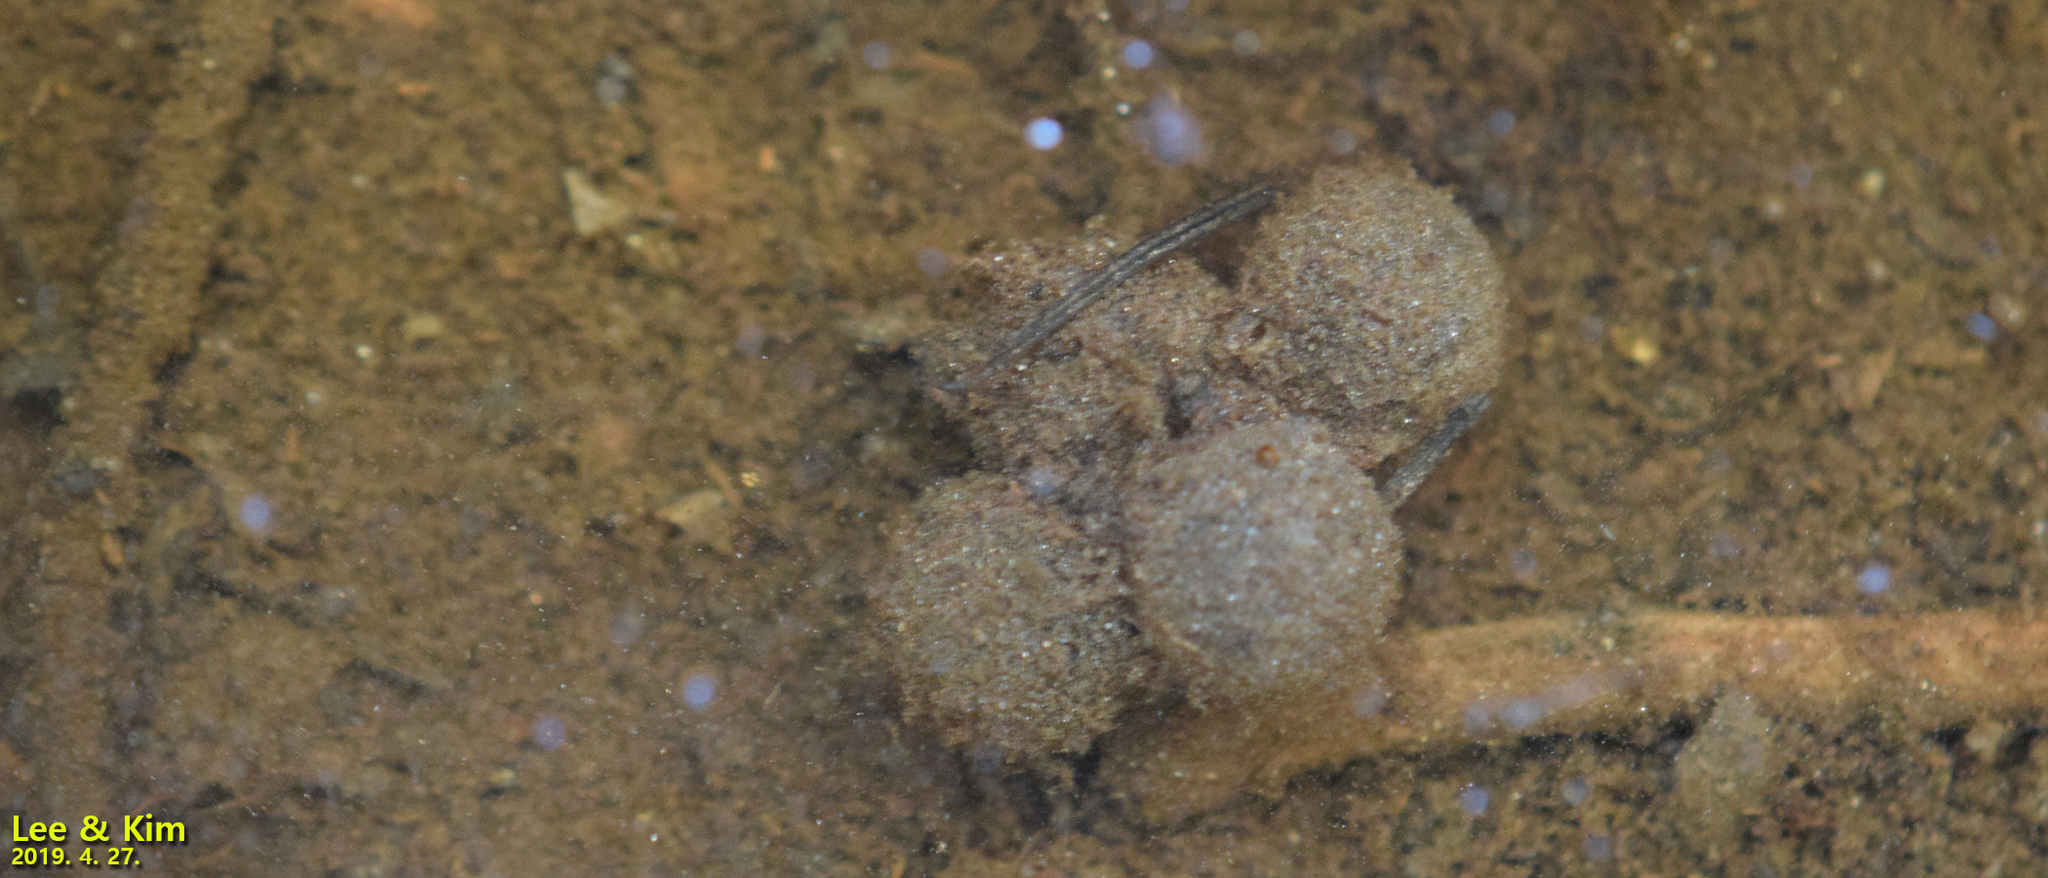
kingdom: Animalia
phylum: Chordata
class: Amphibia
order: Anura
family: Bombinatoridae
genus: Bombina
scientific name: Bombina orientalis
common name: Oriental firebelly toad
